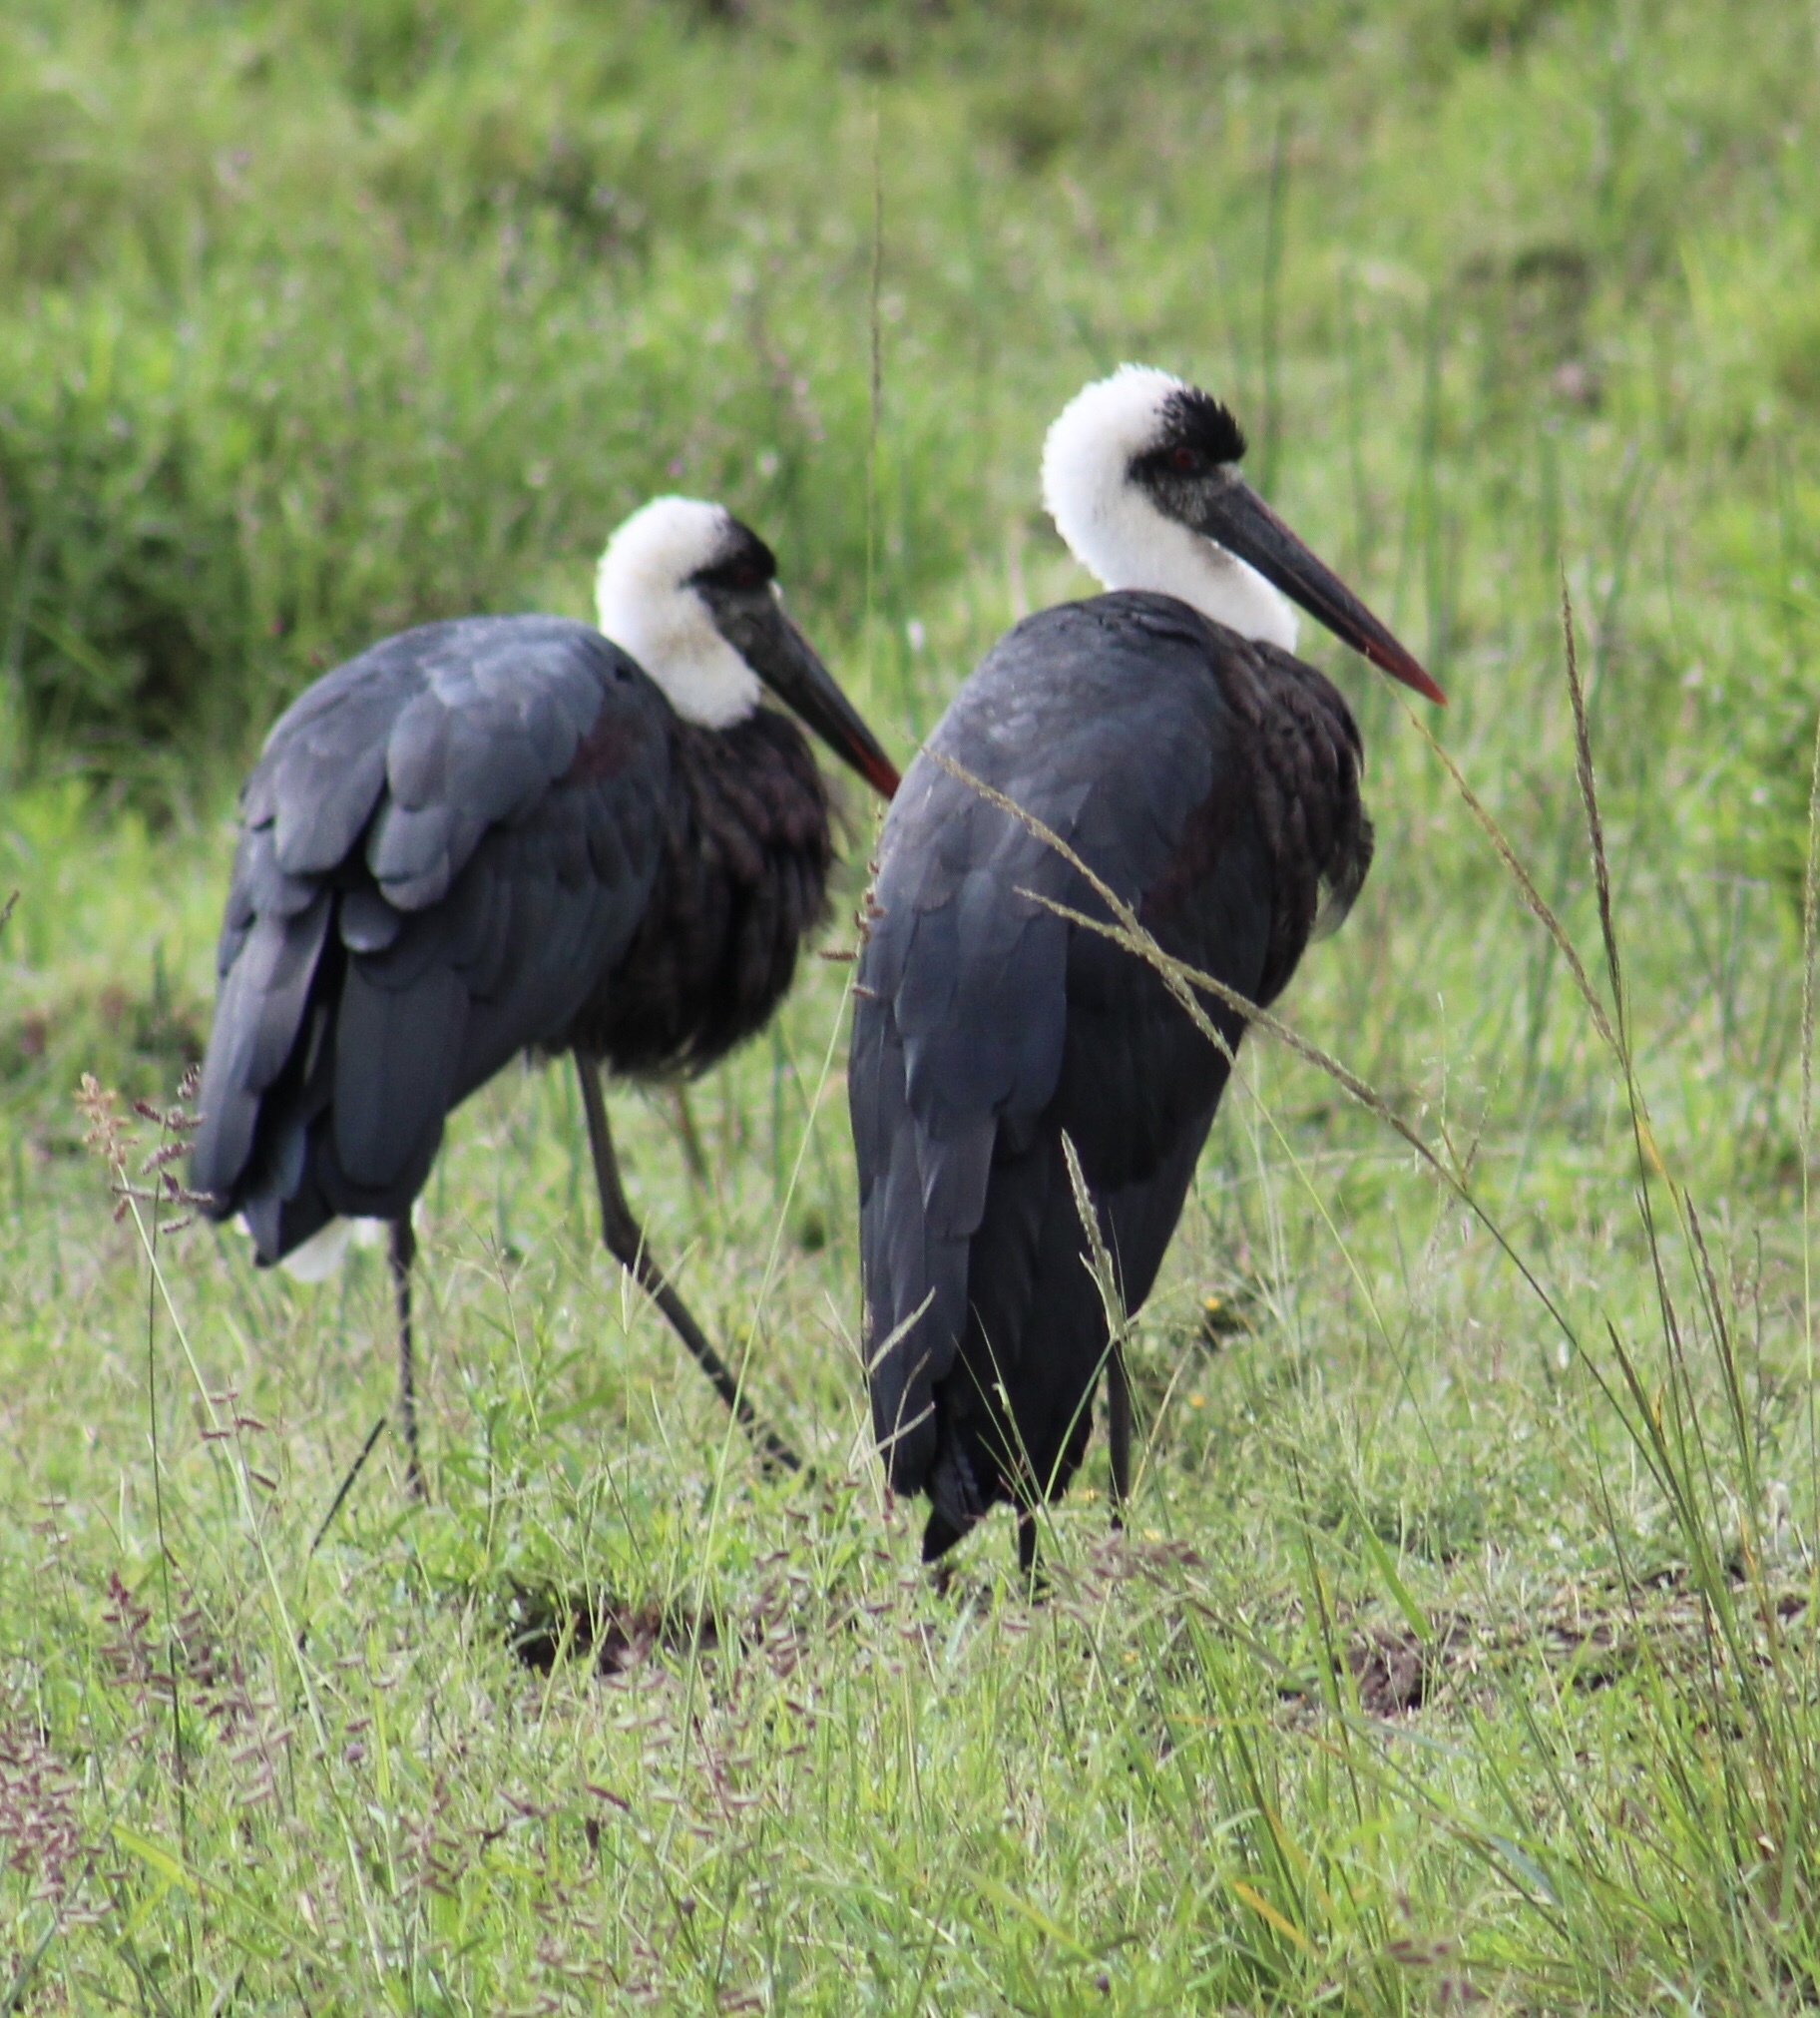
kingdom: Animalia
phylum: Chordata
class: Aves
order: Ciconiiformes
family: Ciconiidae
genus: Ciconia
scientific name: Ciconia microscelis
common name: African woollyneck
